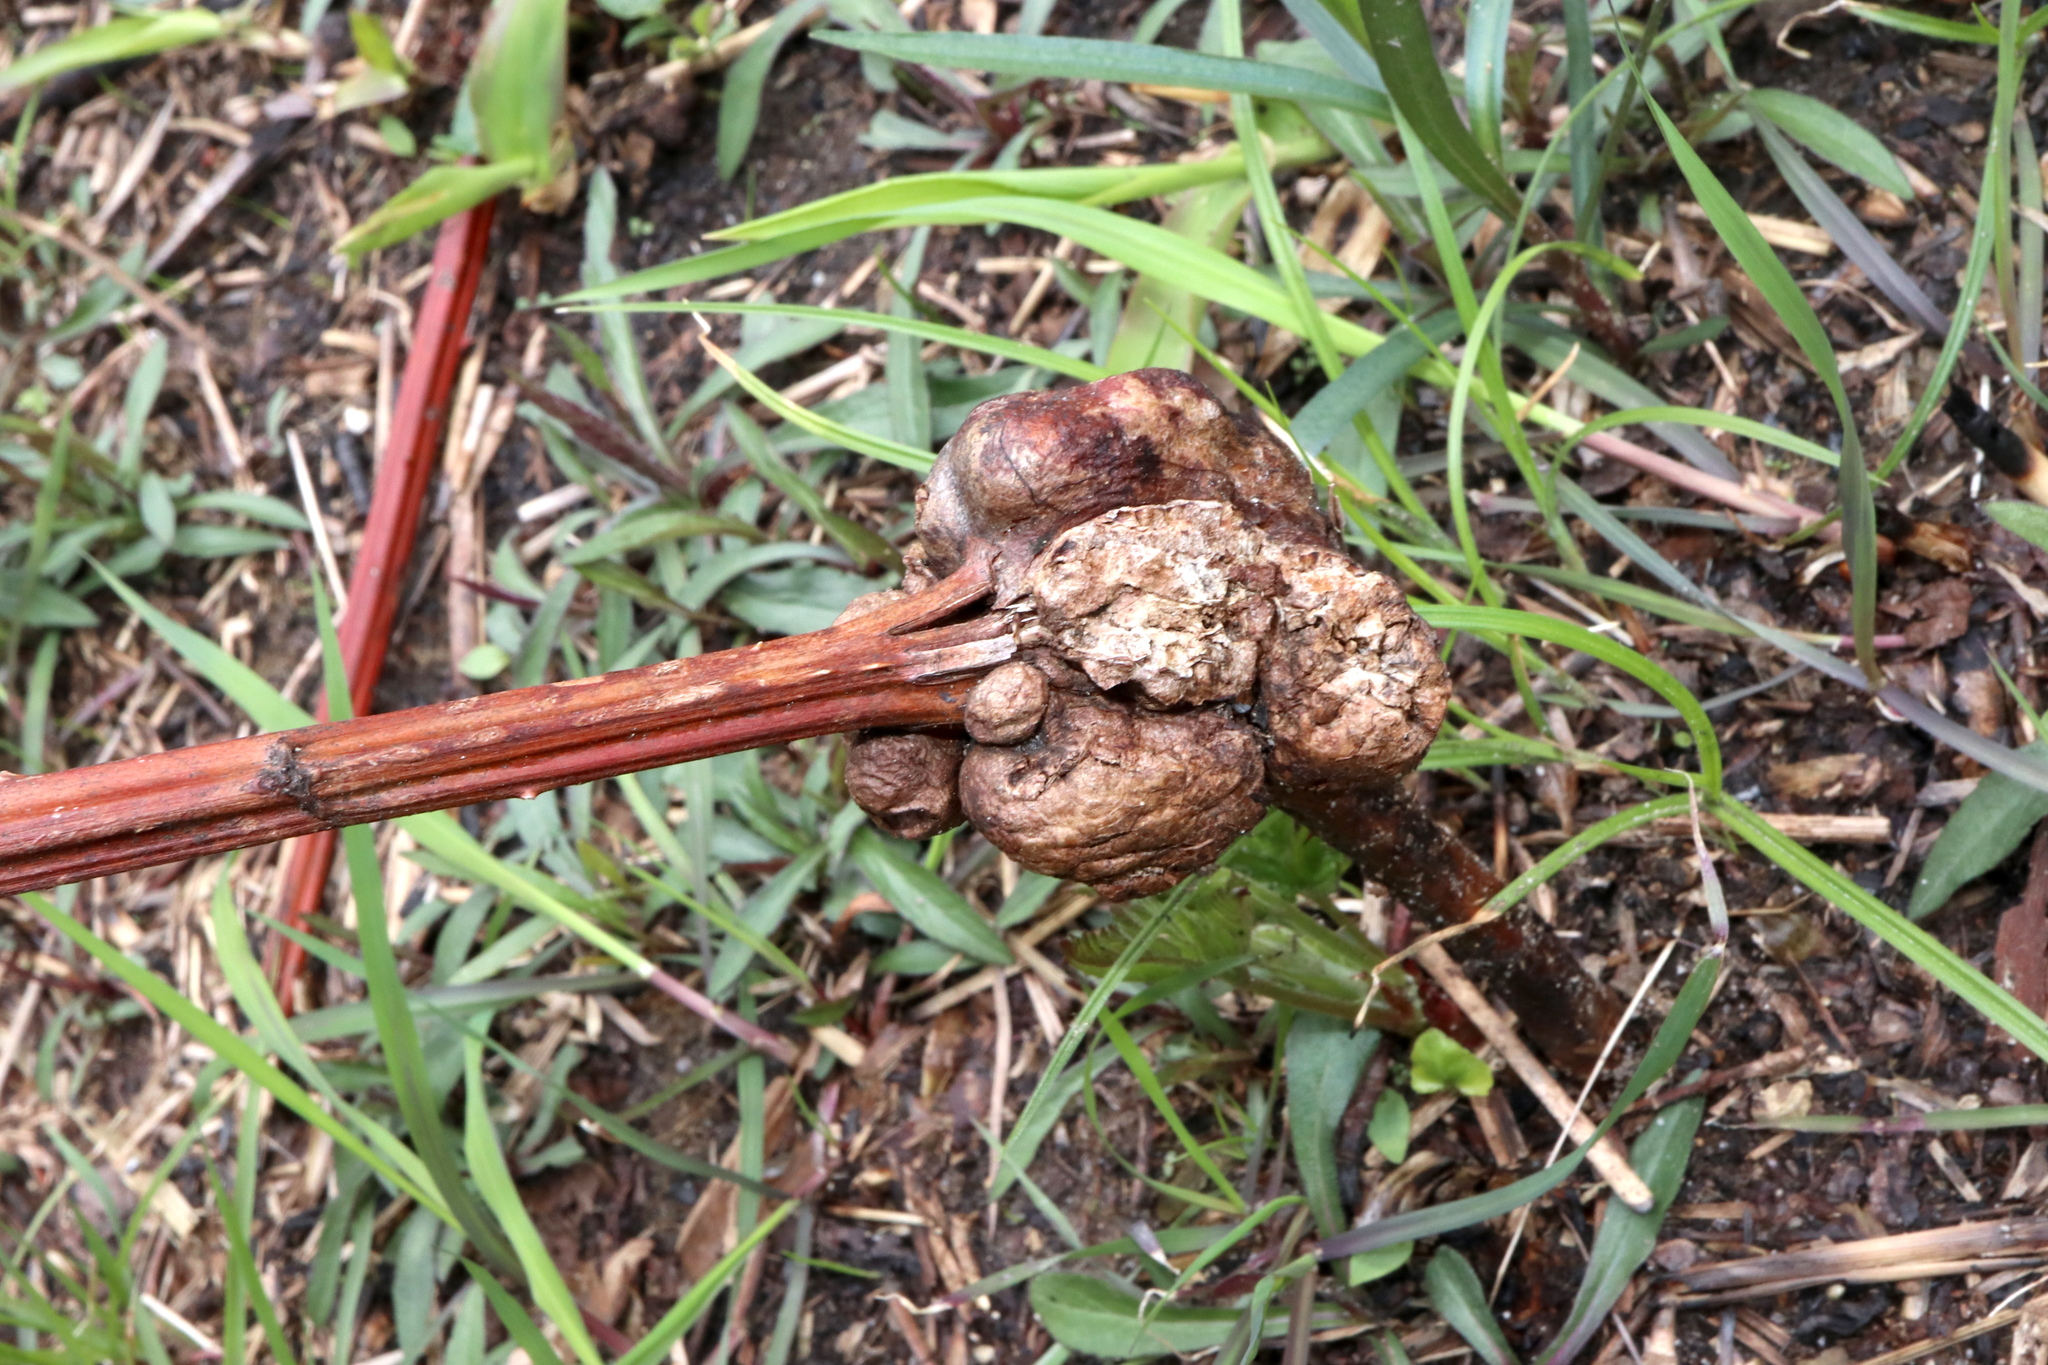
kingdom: Animalia
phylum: Arthropoda
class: Insecta
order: Hymenoptera
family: Cynipidae
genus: Diastrophus
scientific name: Diastrophus
